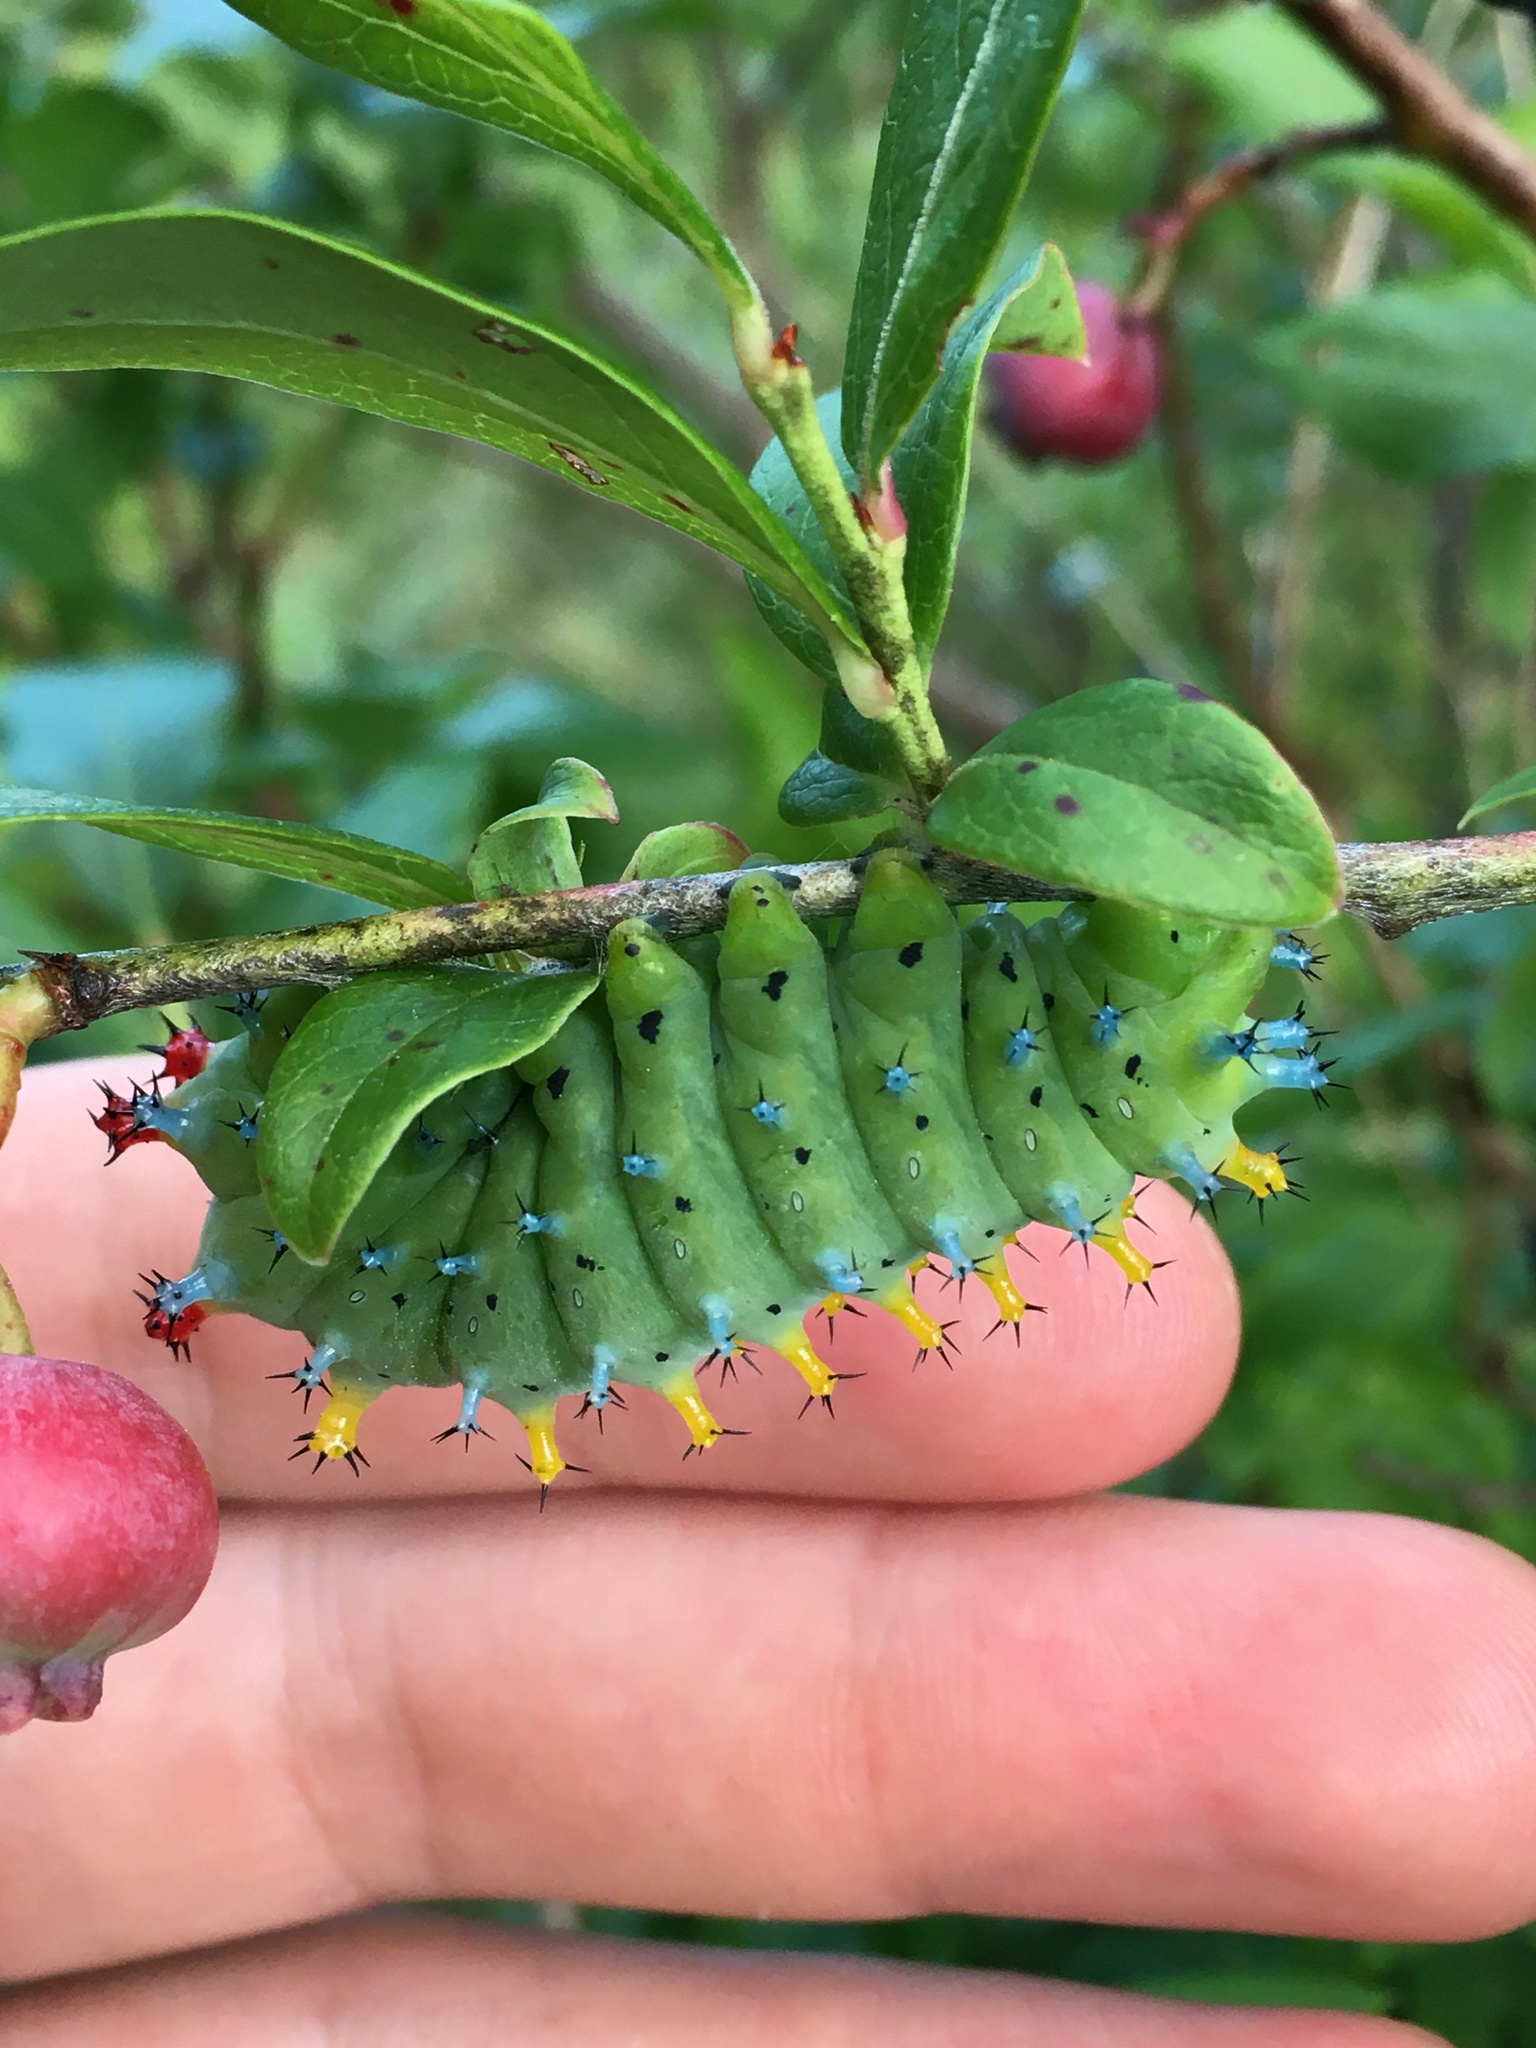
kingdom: Animalia
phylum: Arthropoda
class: Insecta
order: Lepidoptera
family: Saturniidae
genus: Hyalophora
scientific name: Hyalophora cecropia
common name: Cecropia silkmoth
